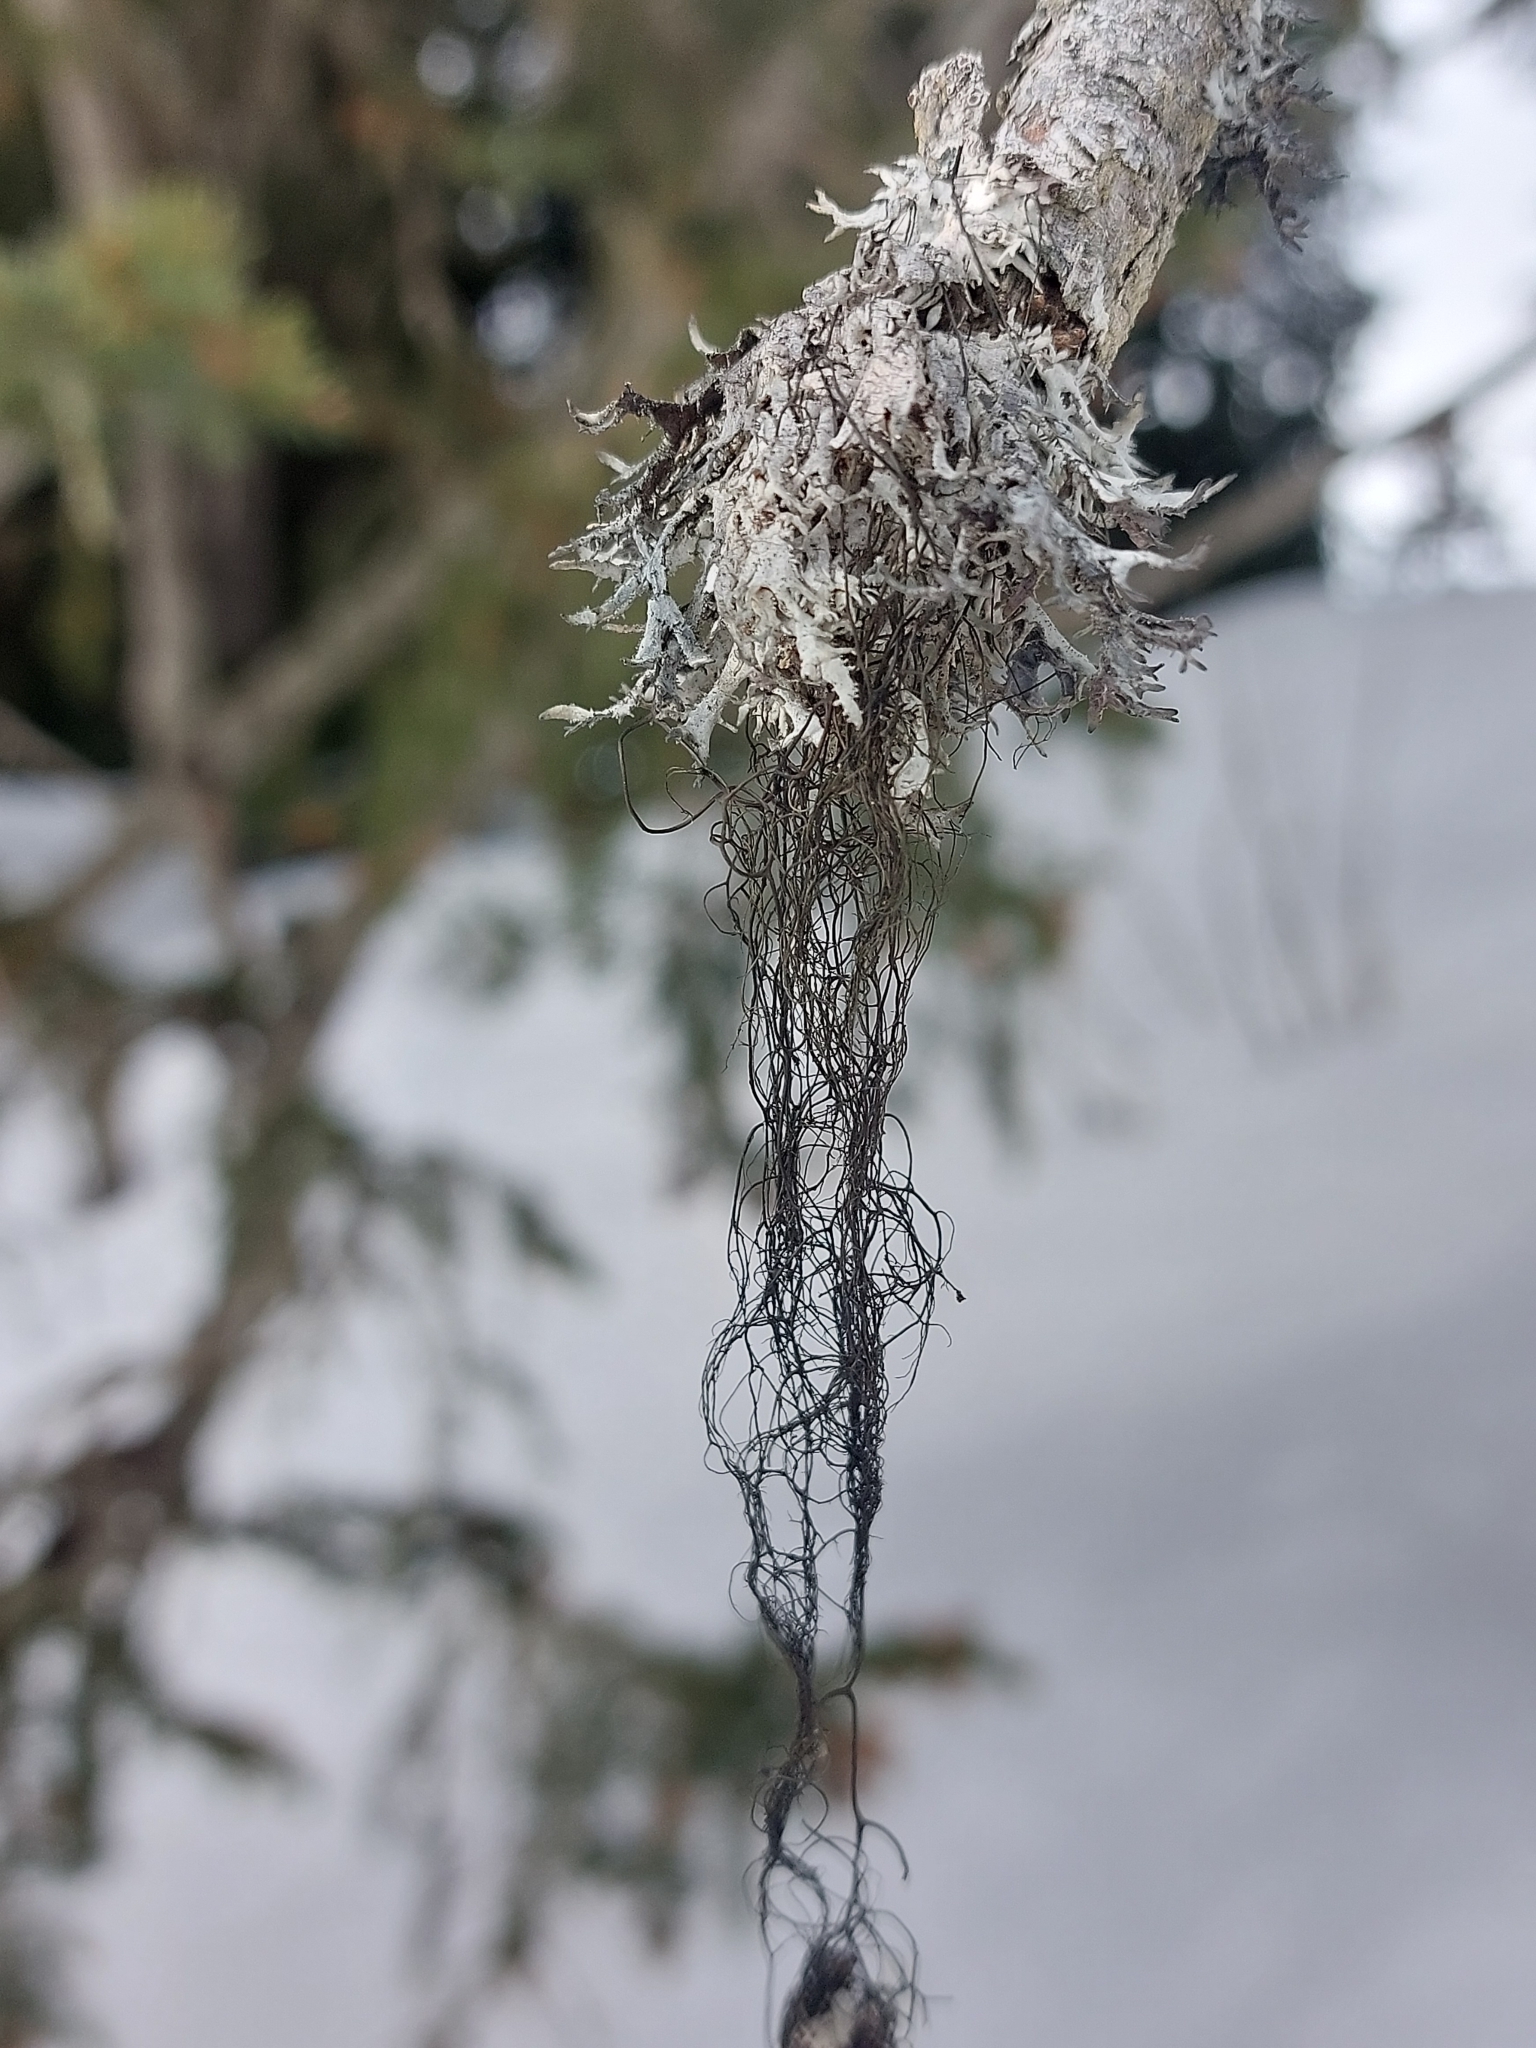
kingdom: Fungi
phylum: Ascomycota
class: Lecanoromycetes
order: Lecanorales
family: Parmeliaceae
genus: Pseudevernia
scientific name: Pseudevernia furfuracea
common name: Tree moss
